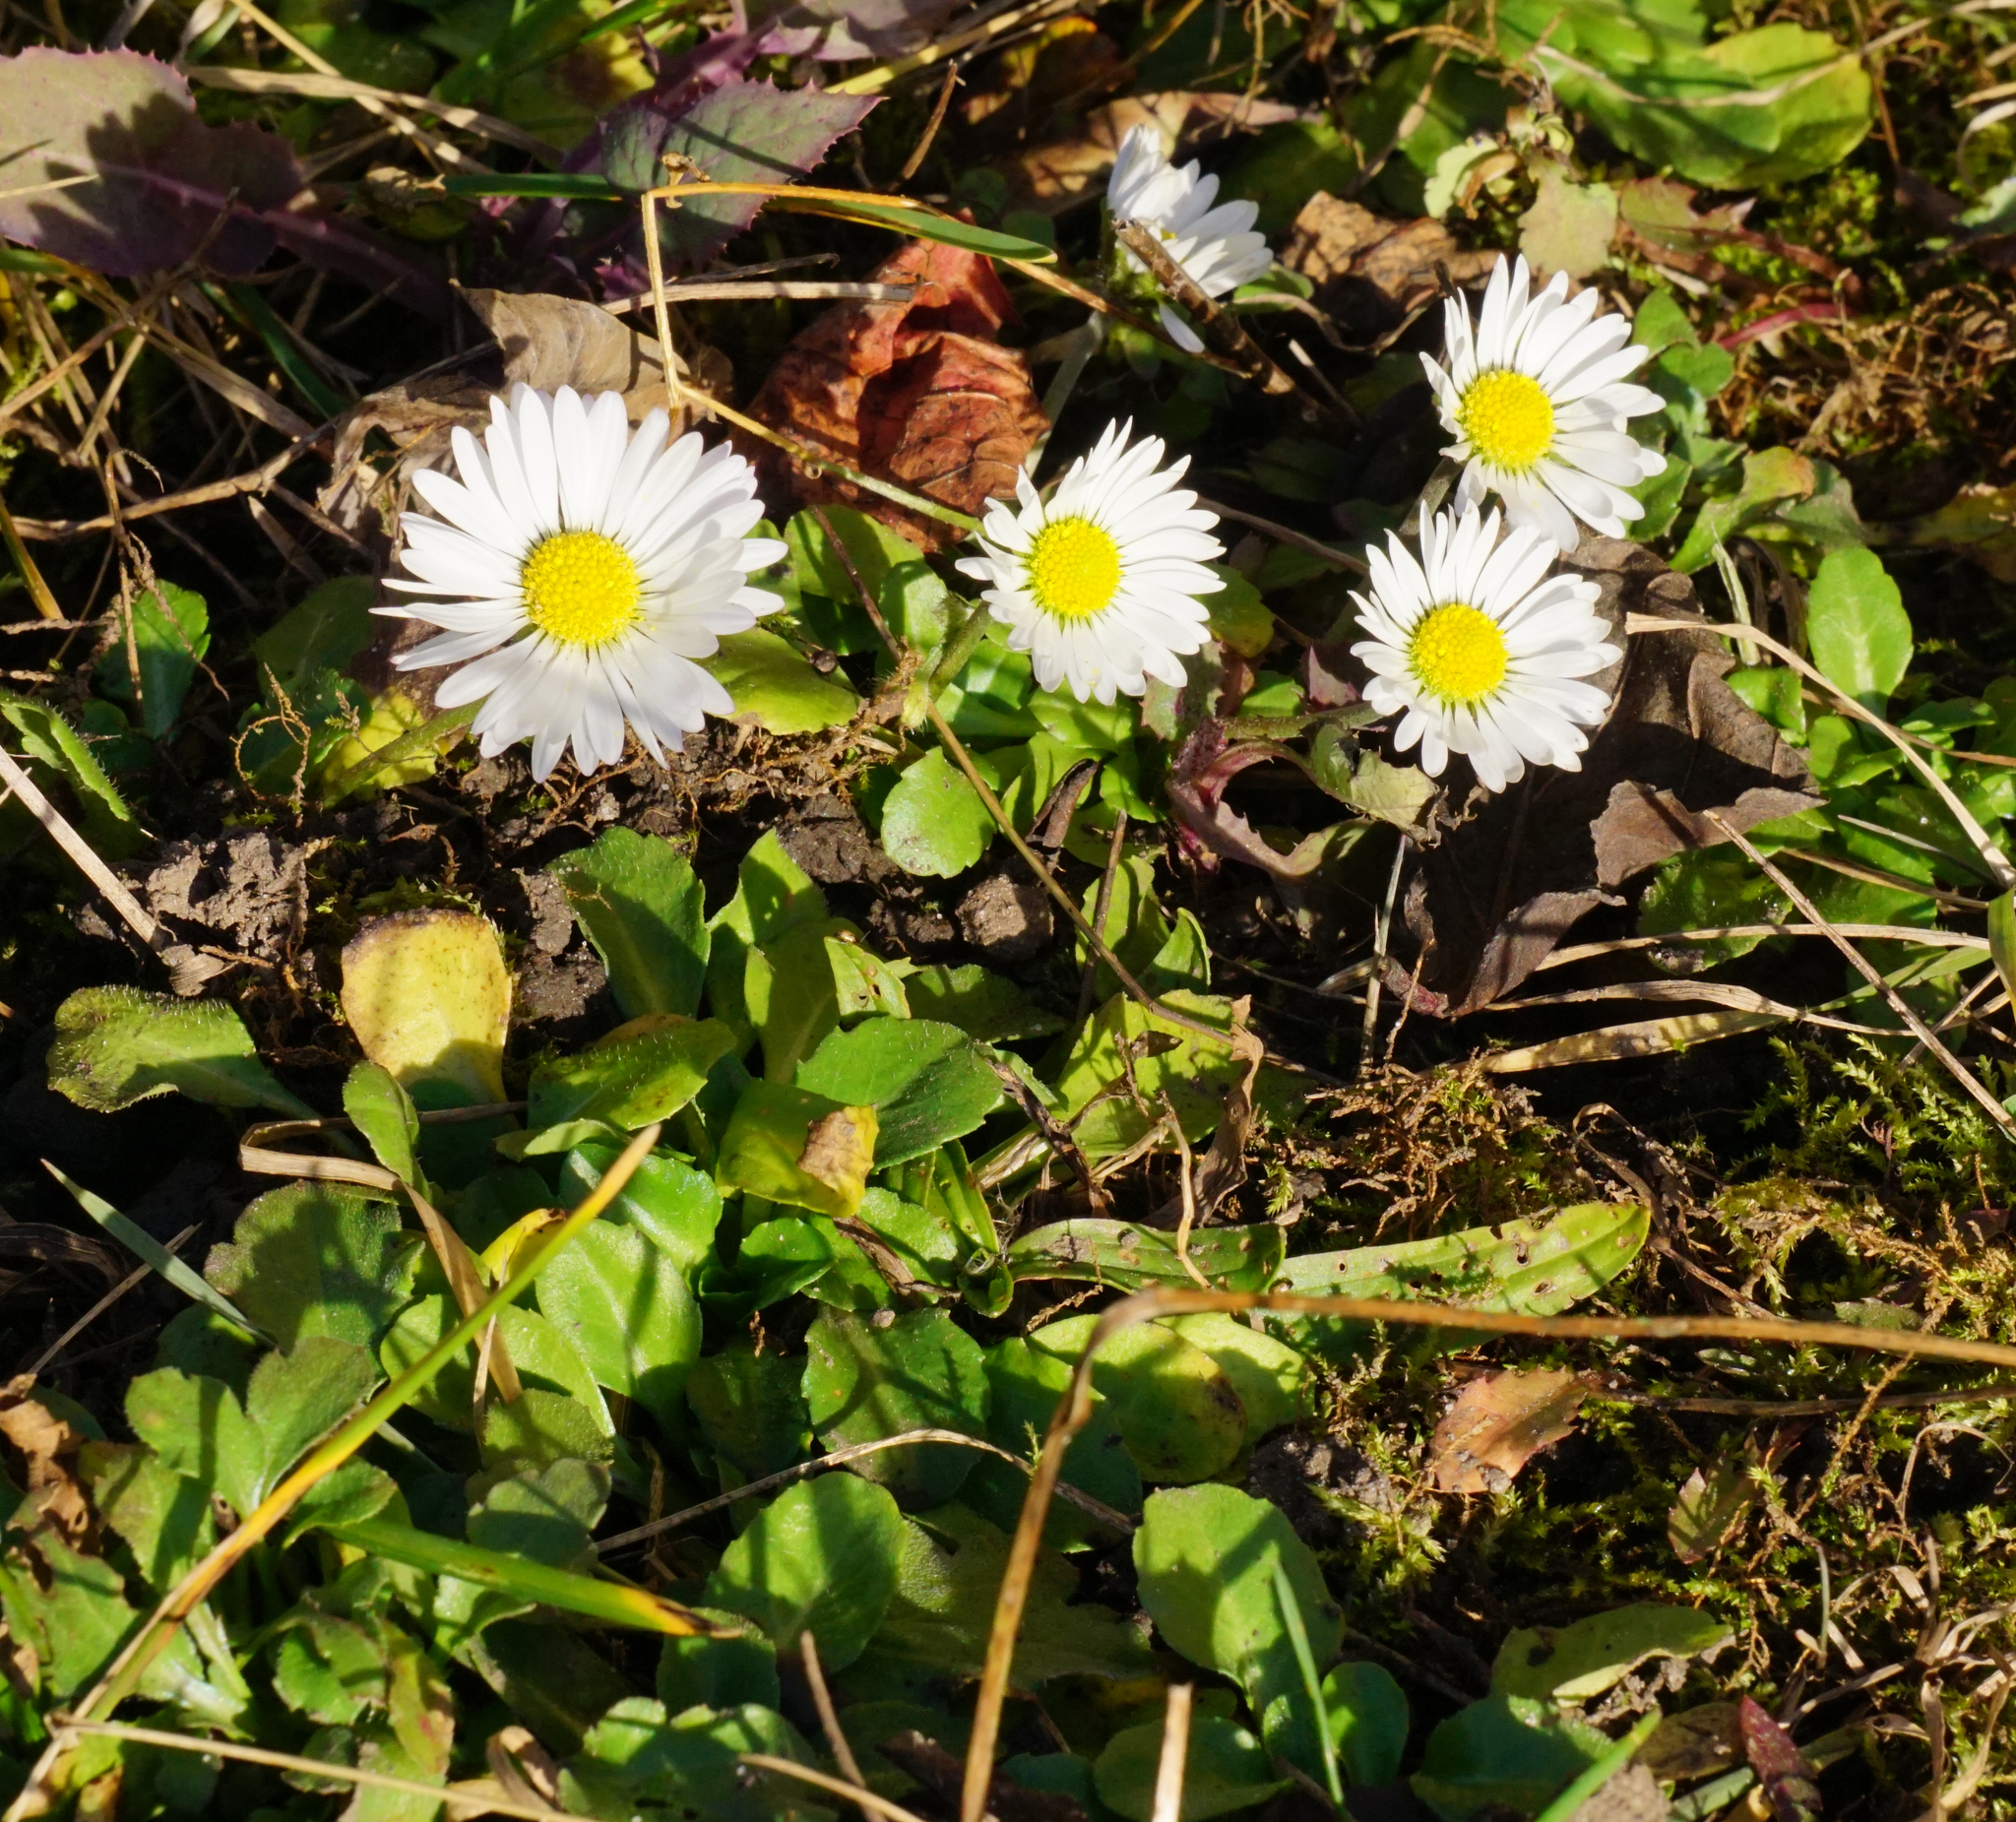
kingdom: Plantae
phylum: Tracheophyta
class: Magnoliopsida
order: Asterales
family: Asteraceae
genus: Bellis
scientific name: Bellis perennis
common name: Lawndaisy
